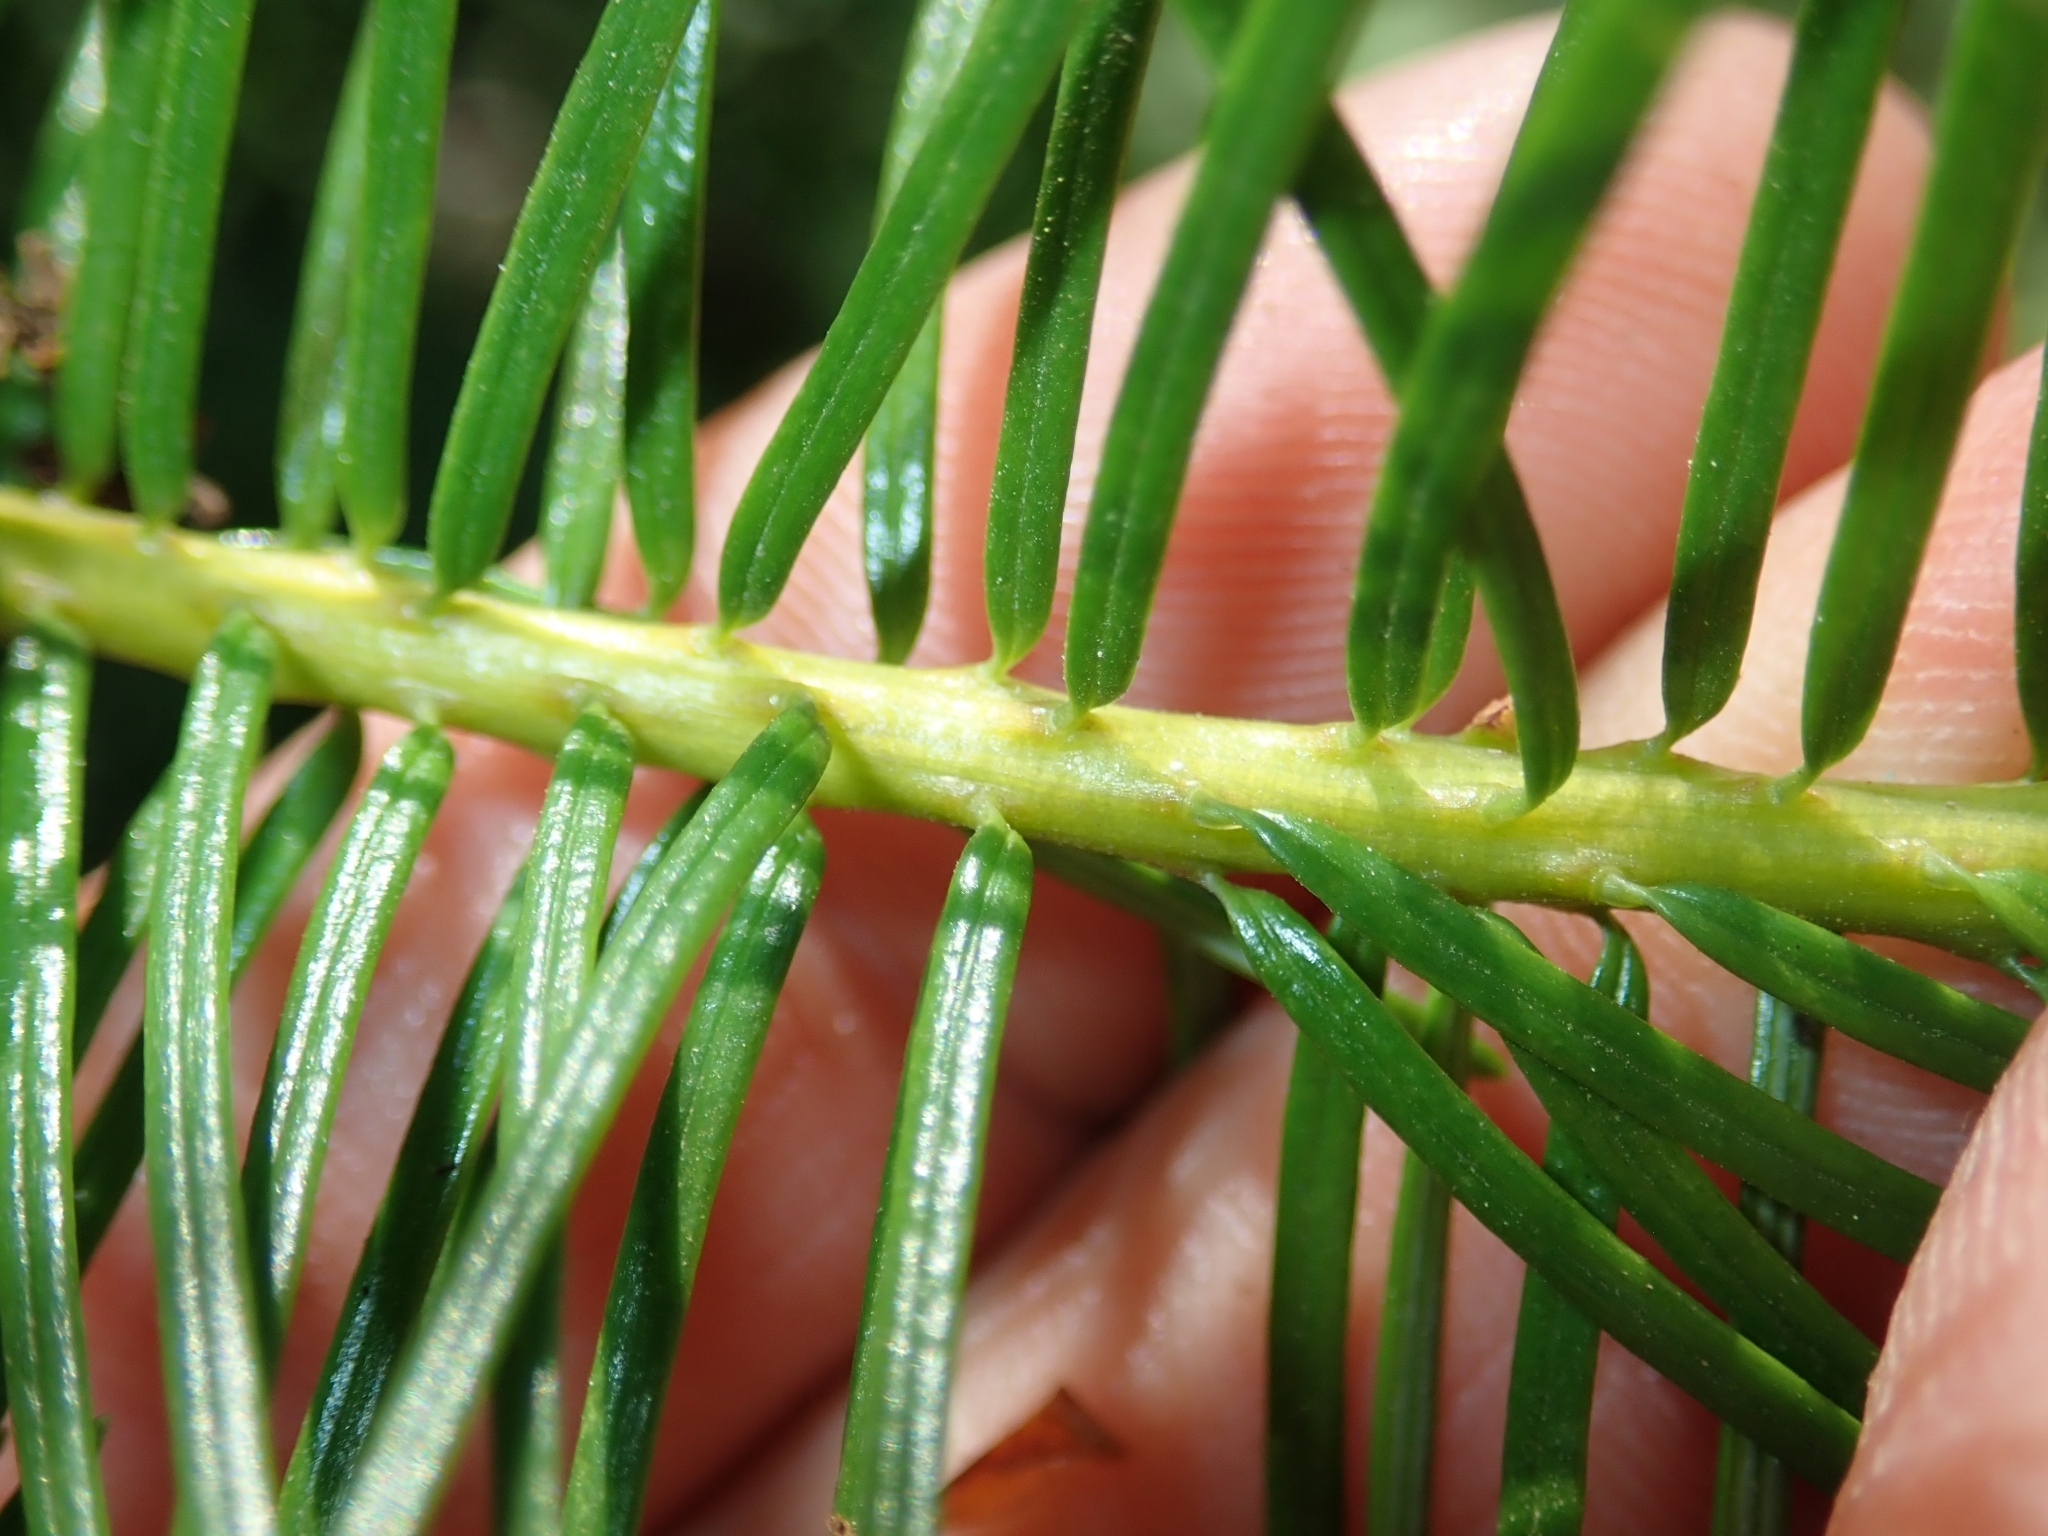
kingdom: Plantae
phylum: Tracheophyta
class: Pinopsida
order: Pinales
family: Pinaceae
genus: Pseudotsuga
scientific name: Pseudotsuga menziesii
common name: Douglas fir
